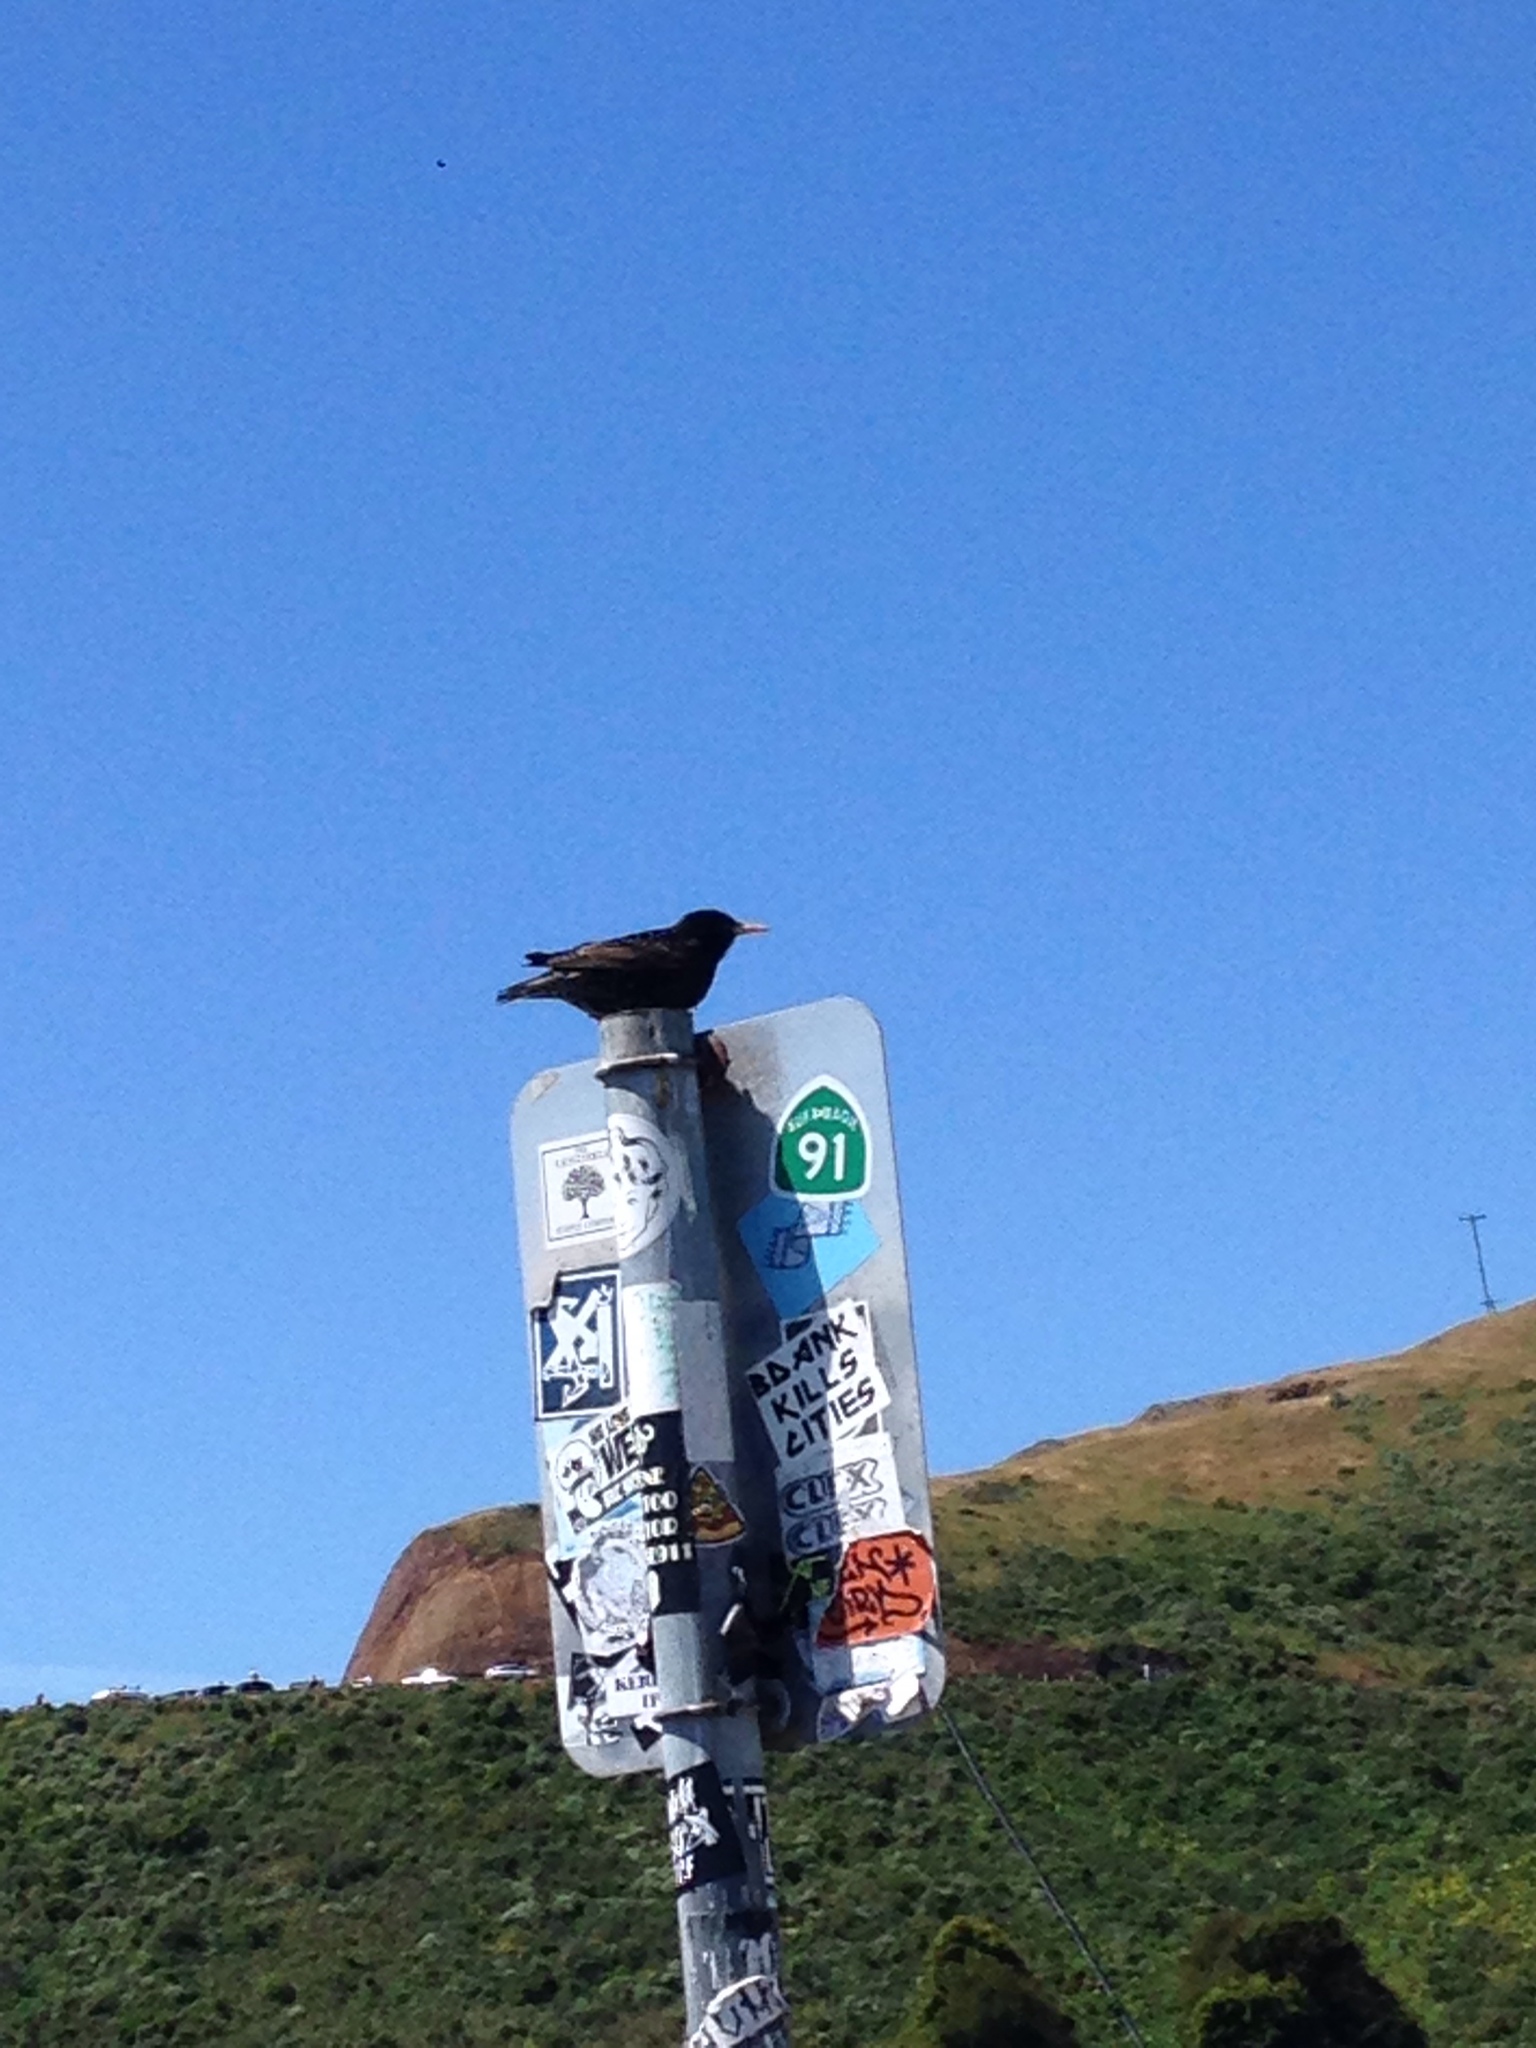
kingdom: Animalia
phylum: Chordata
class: Aves
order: Passeriformes
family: Sturnidae
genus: Sturnus
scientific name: Sturnus vulgaris
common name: Common starling
